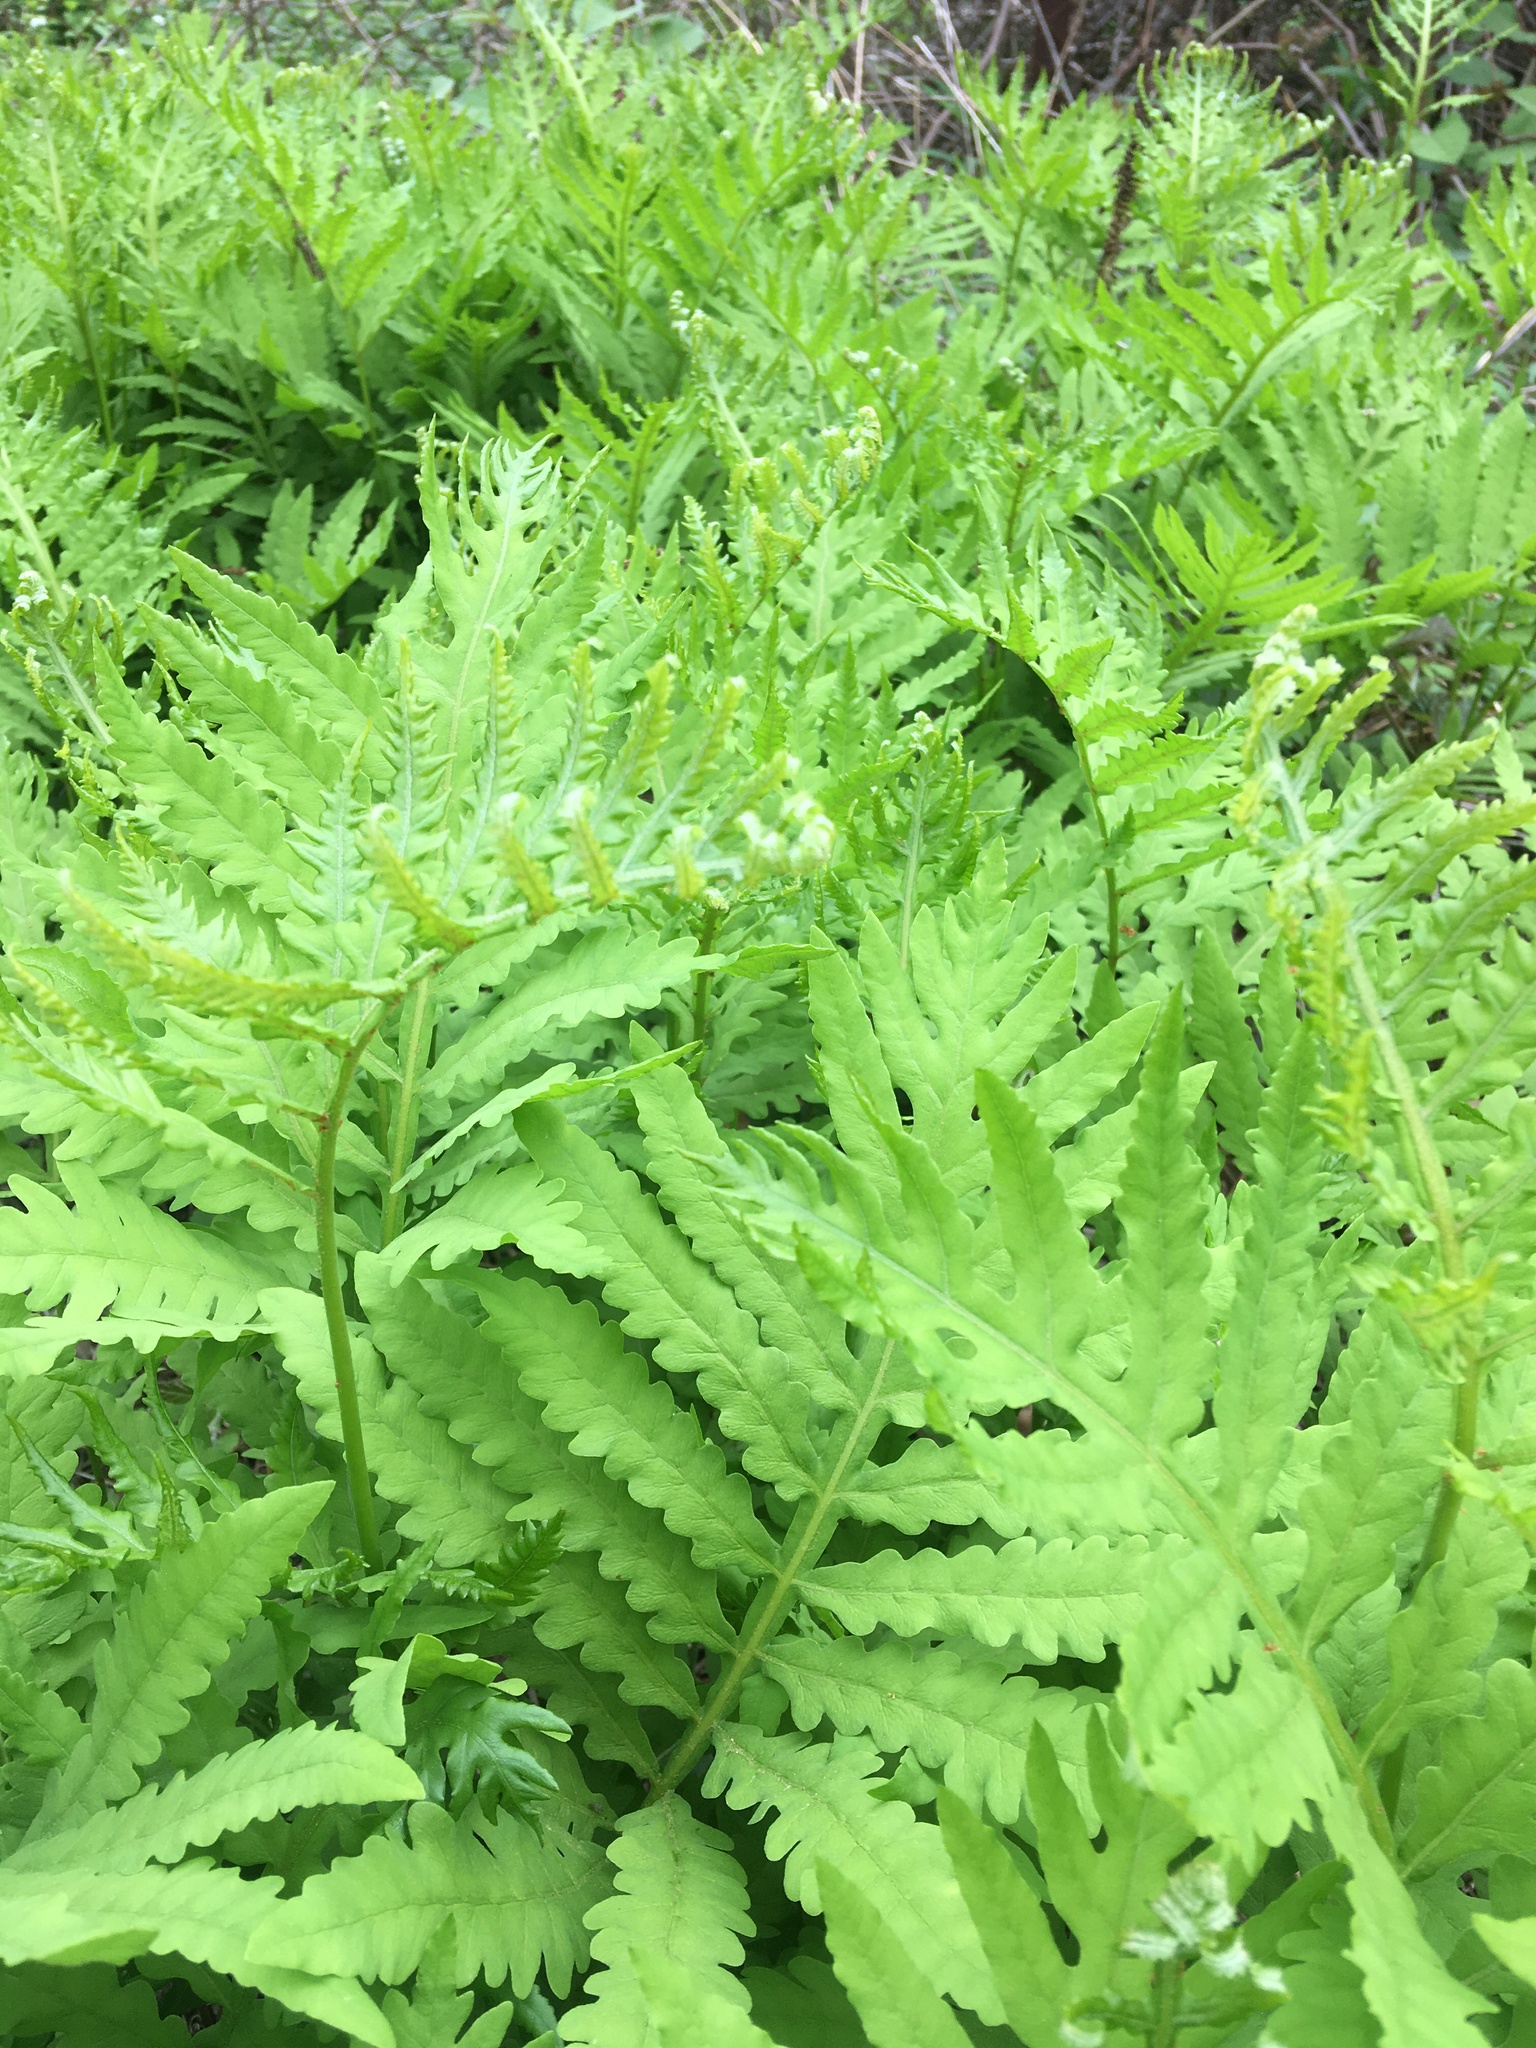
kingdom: Plantae
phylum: Tracheophyta
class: Polypodiopsida
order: Polypodiales
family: Onocleaceae
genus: Onoclea
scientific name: Onoclea sensibilis
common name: Sensitive fern
